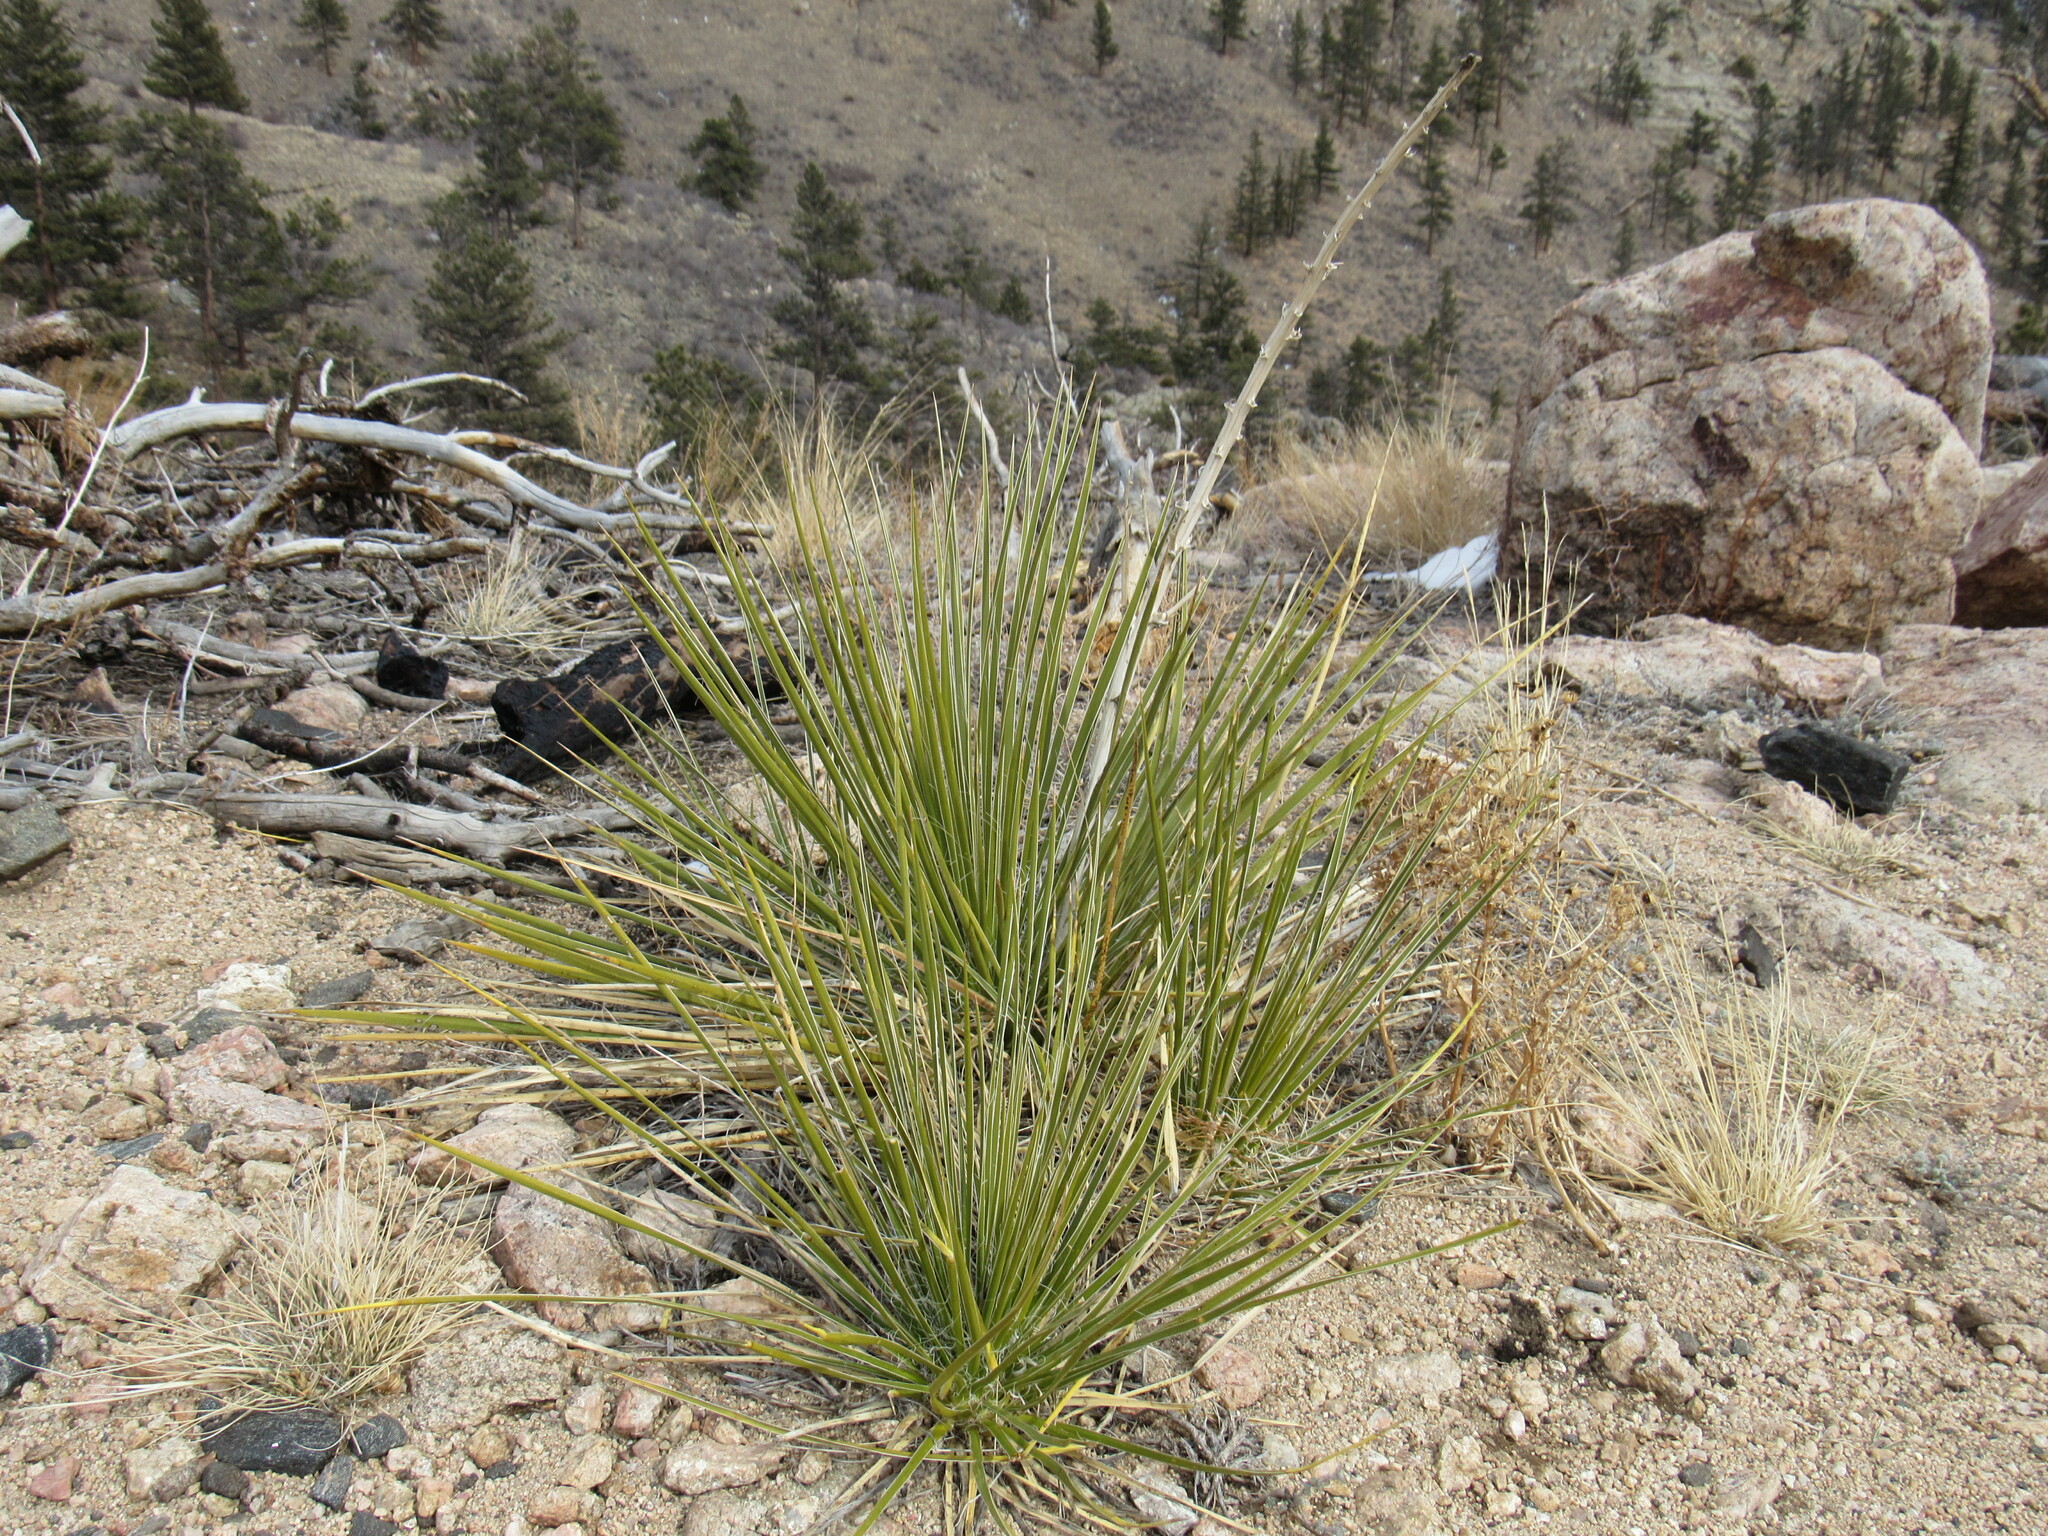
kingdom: Plantae
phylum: Tracheophyta
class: Liliopsida
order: Asparagales
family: Asparagaceae
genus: Yucca
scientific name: Yucca glauca
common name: Great plains yucca
